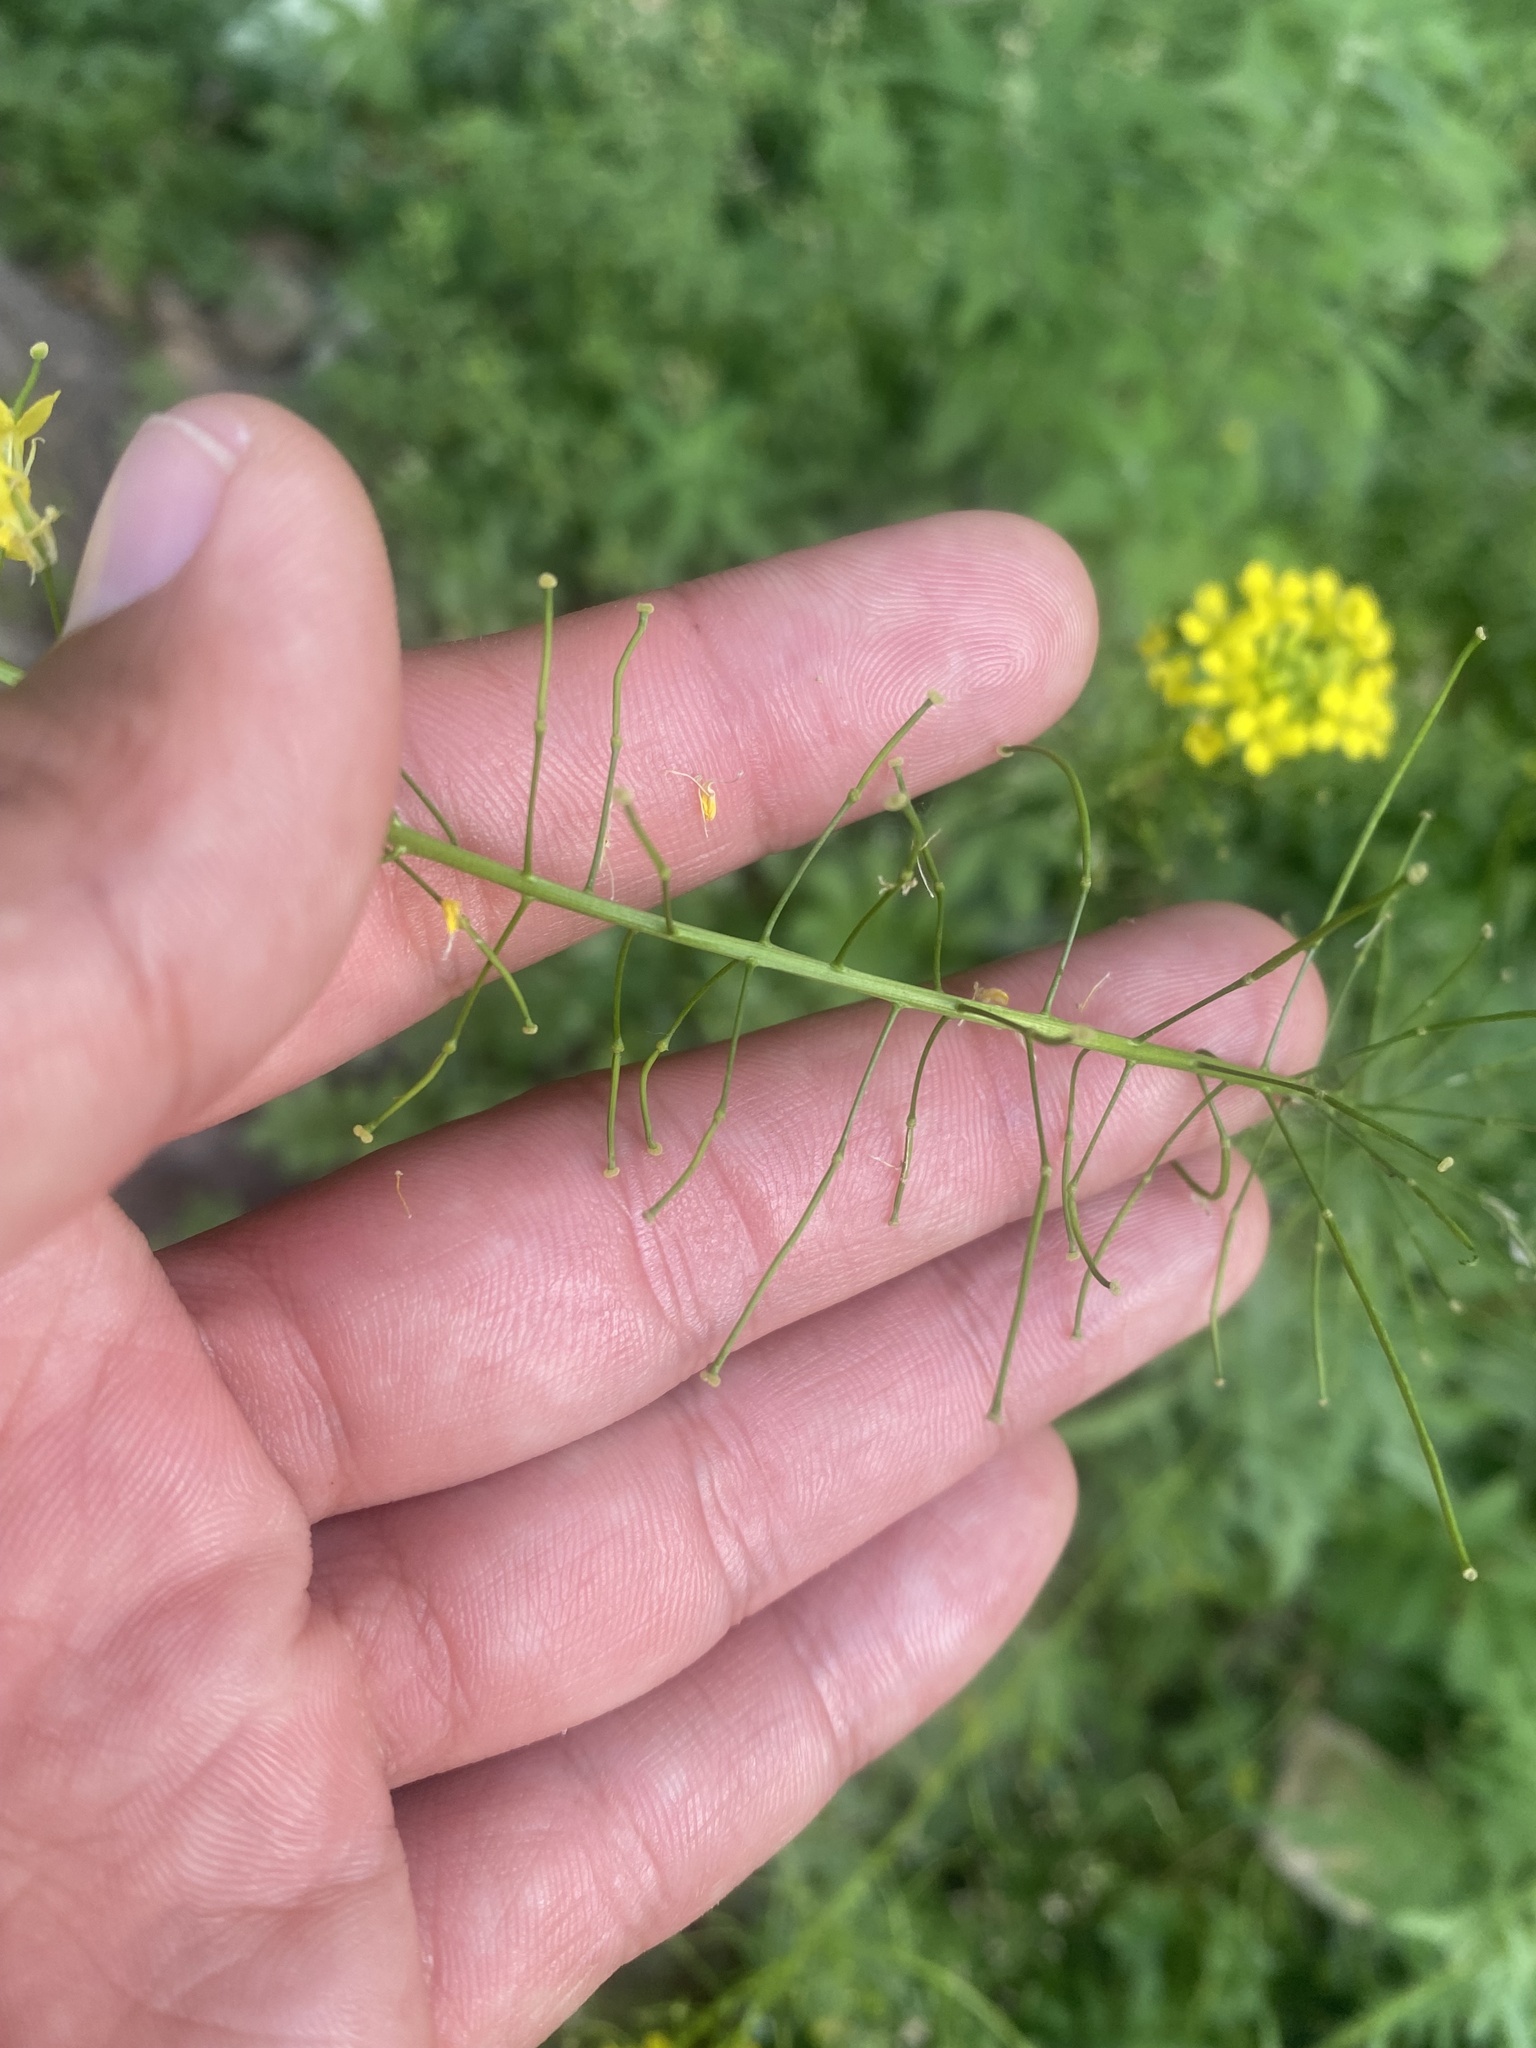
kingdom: Plantae
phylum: Tracheophyta
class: Magnoliopsida
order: Brassicales
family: Brassicaceae
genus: Sisymbrium
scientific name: Sisymbrium loeselii
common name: False london-rocket
